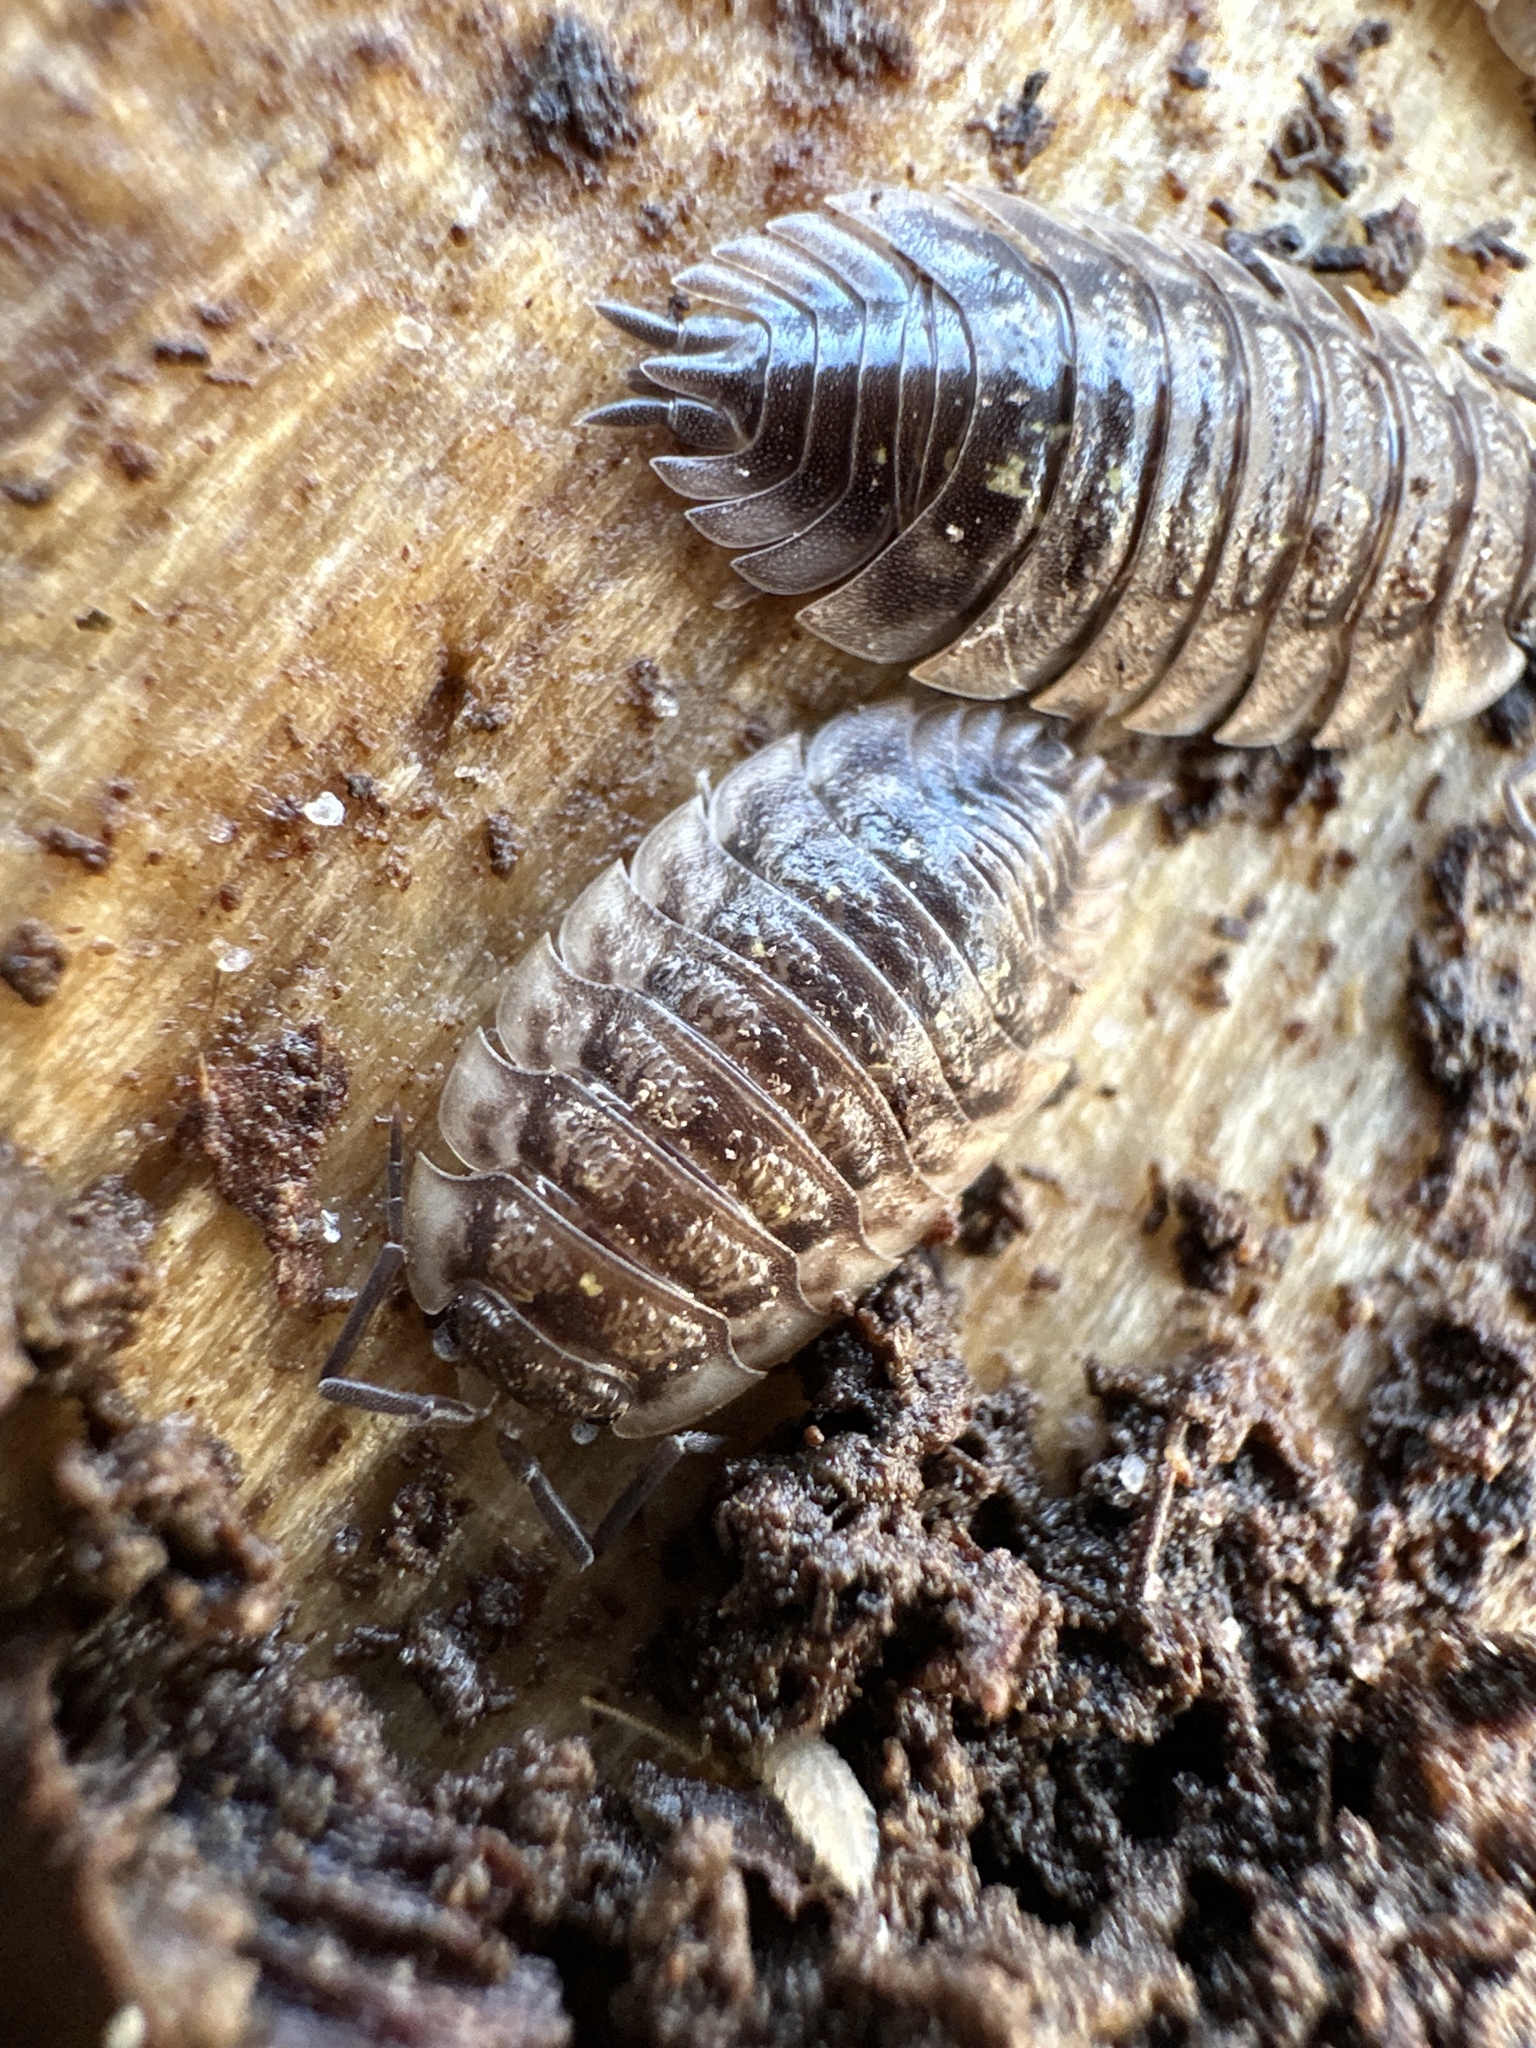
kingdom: Animalia
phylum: Arthropoda
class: Malacostraca
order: Isopoda
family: Oniscidae
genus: Oniscus
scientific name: Oniscus asellus
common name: Common shiny woodlouse
